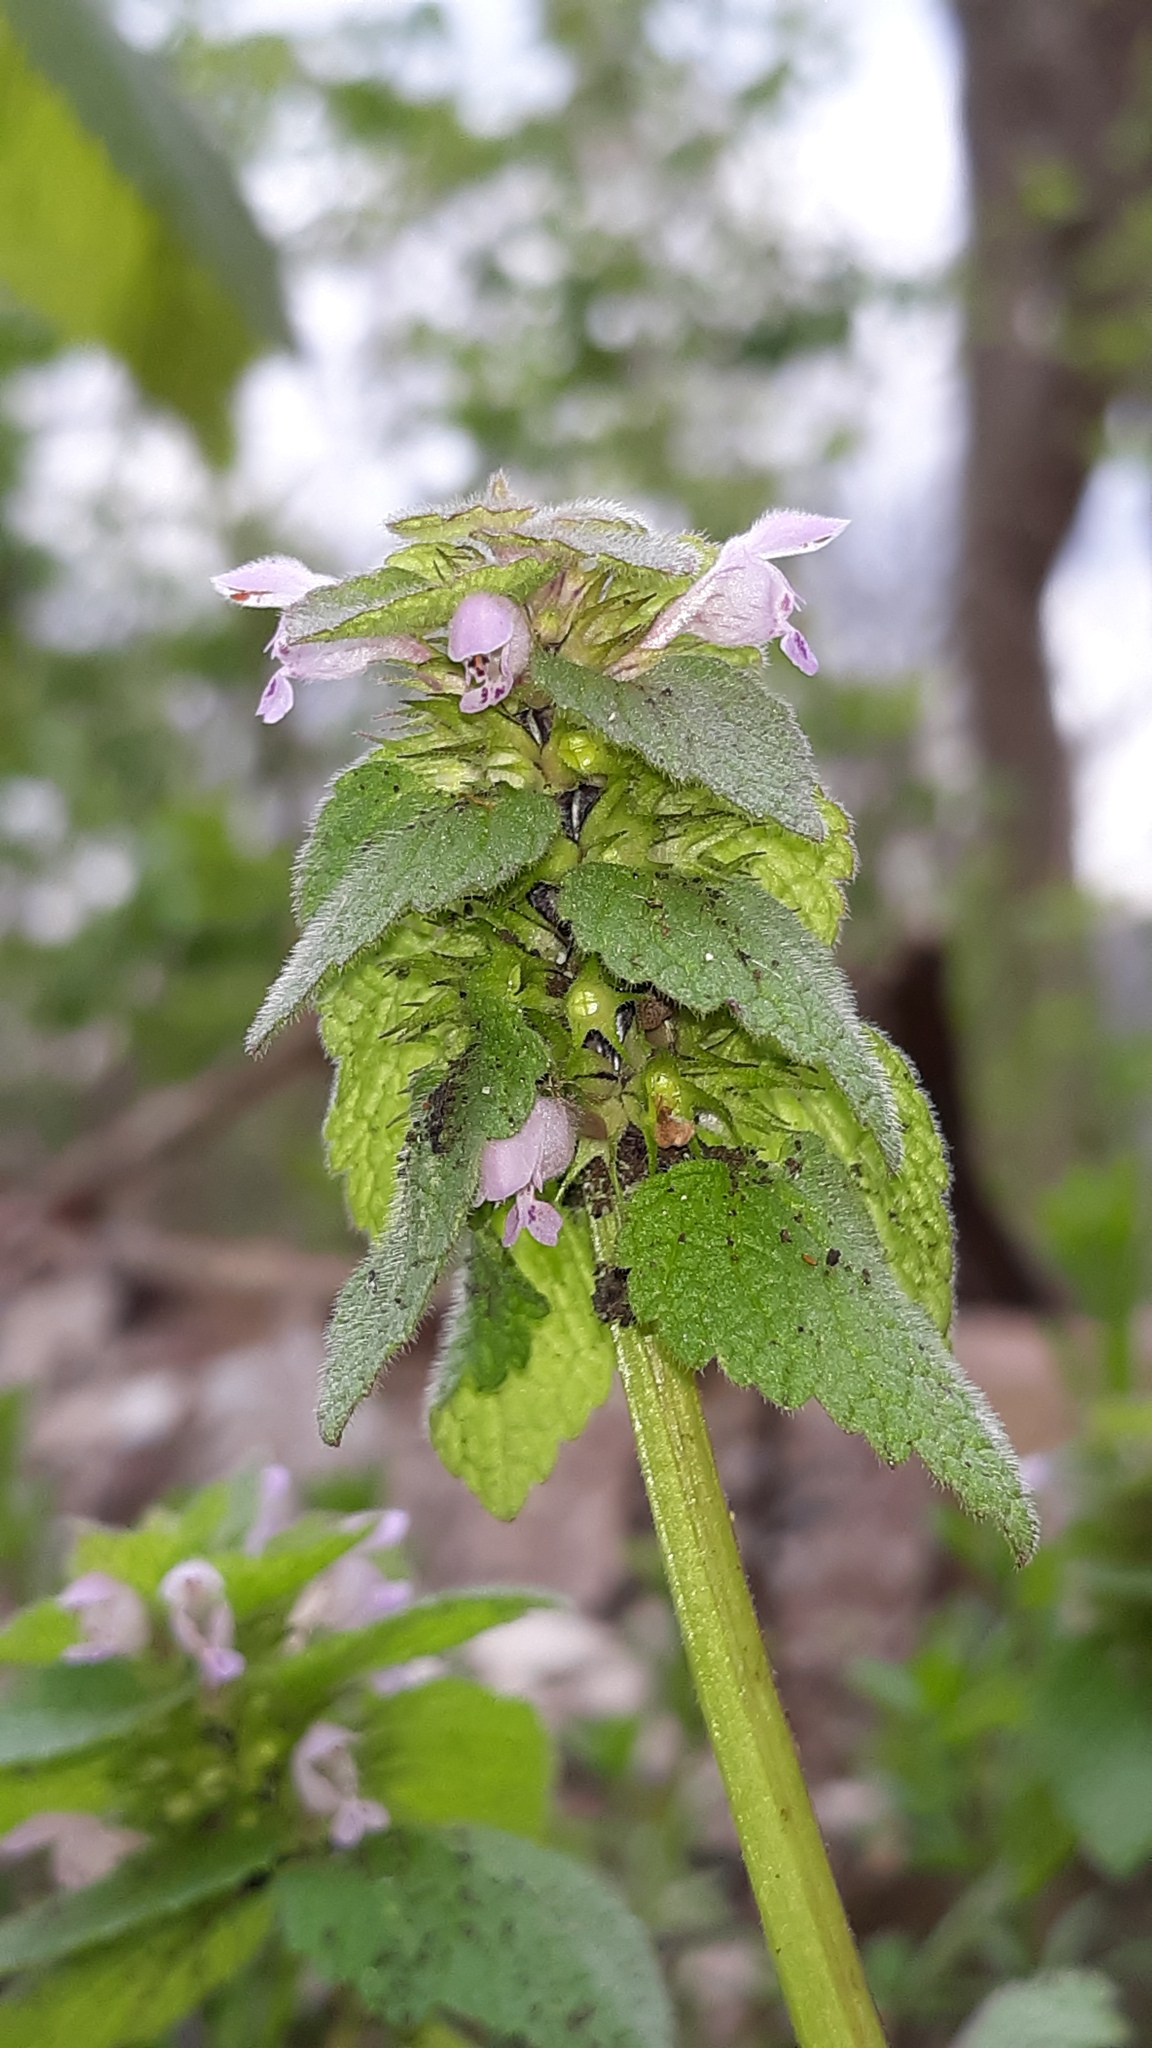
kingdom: Plantae
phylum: Tracheophyta
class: Magnoliopsida
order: Lamiales
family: Lamiaceae
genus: Lamium
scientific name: Lamium purpureum
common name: Red dead-nettle
